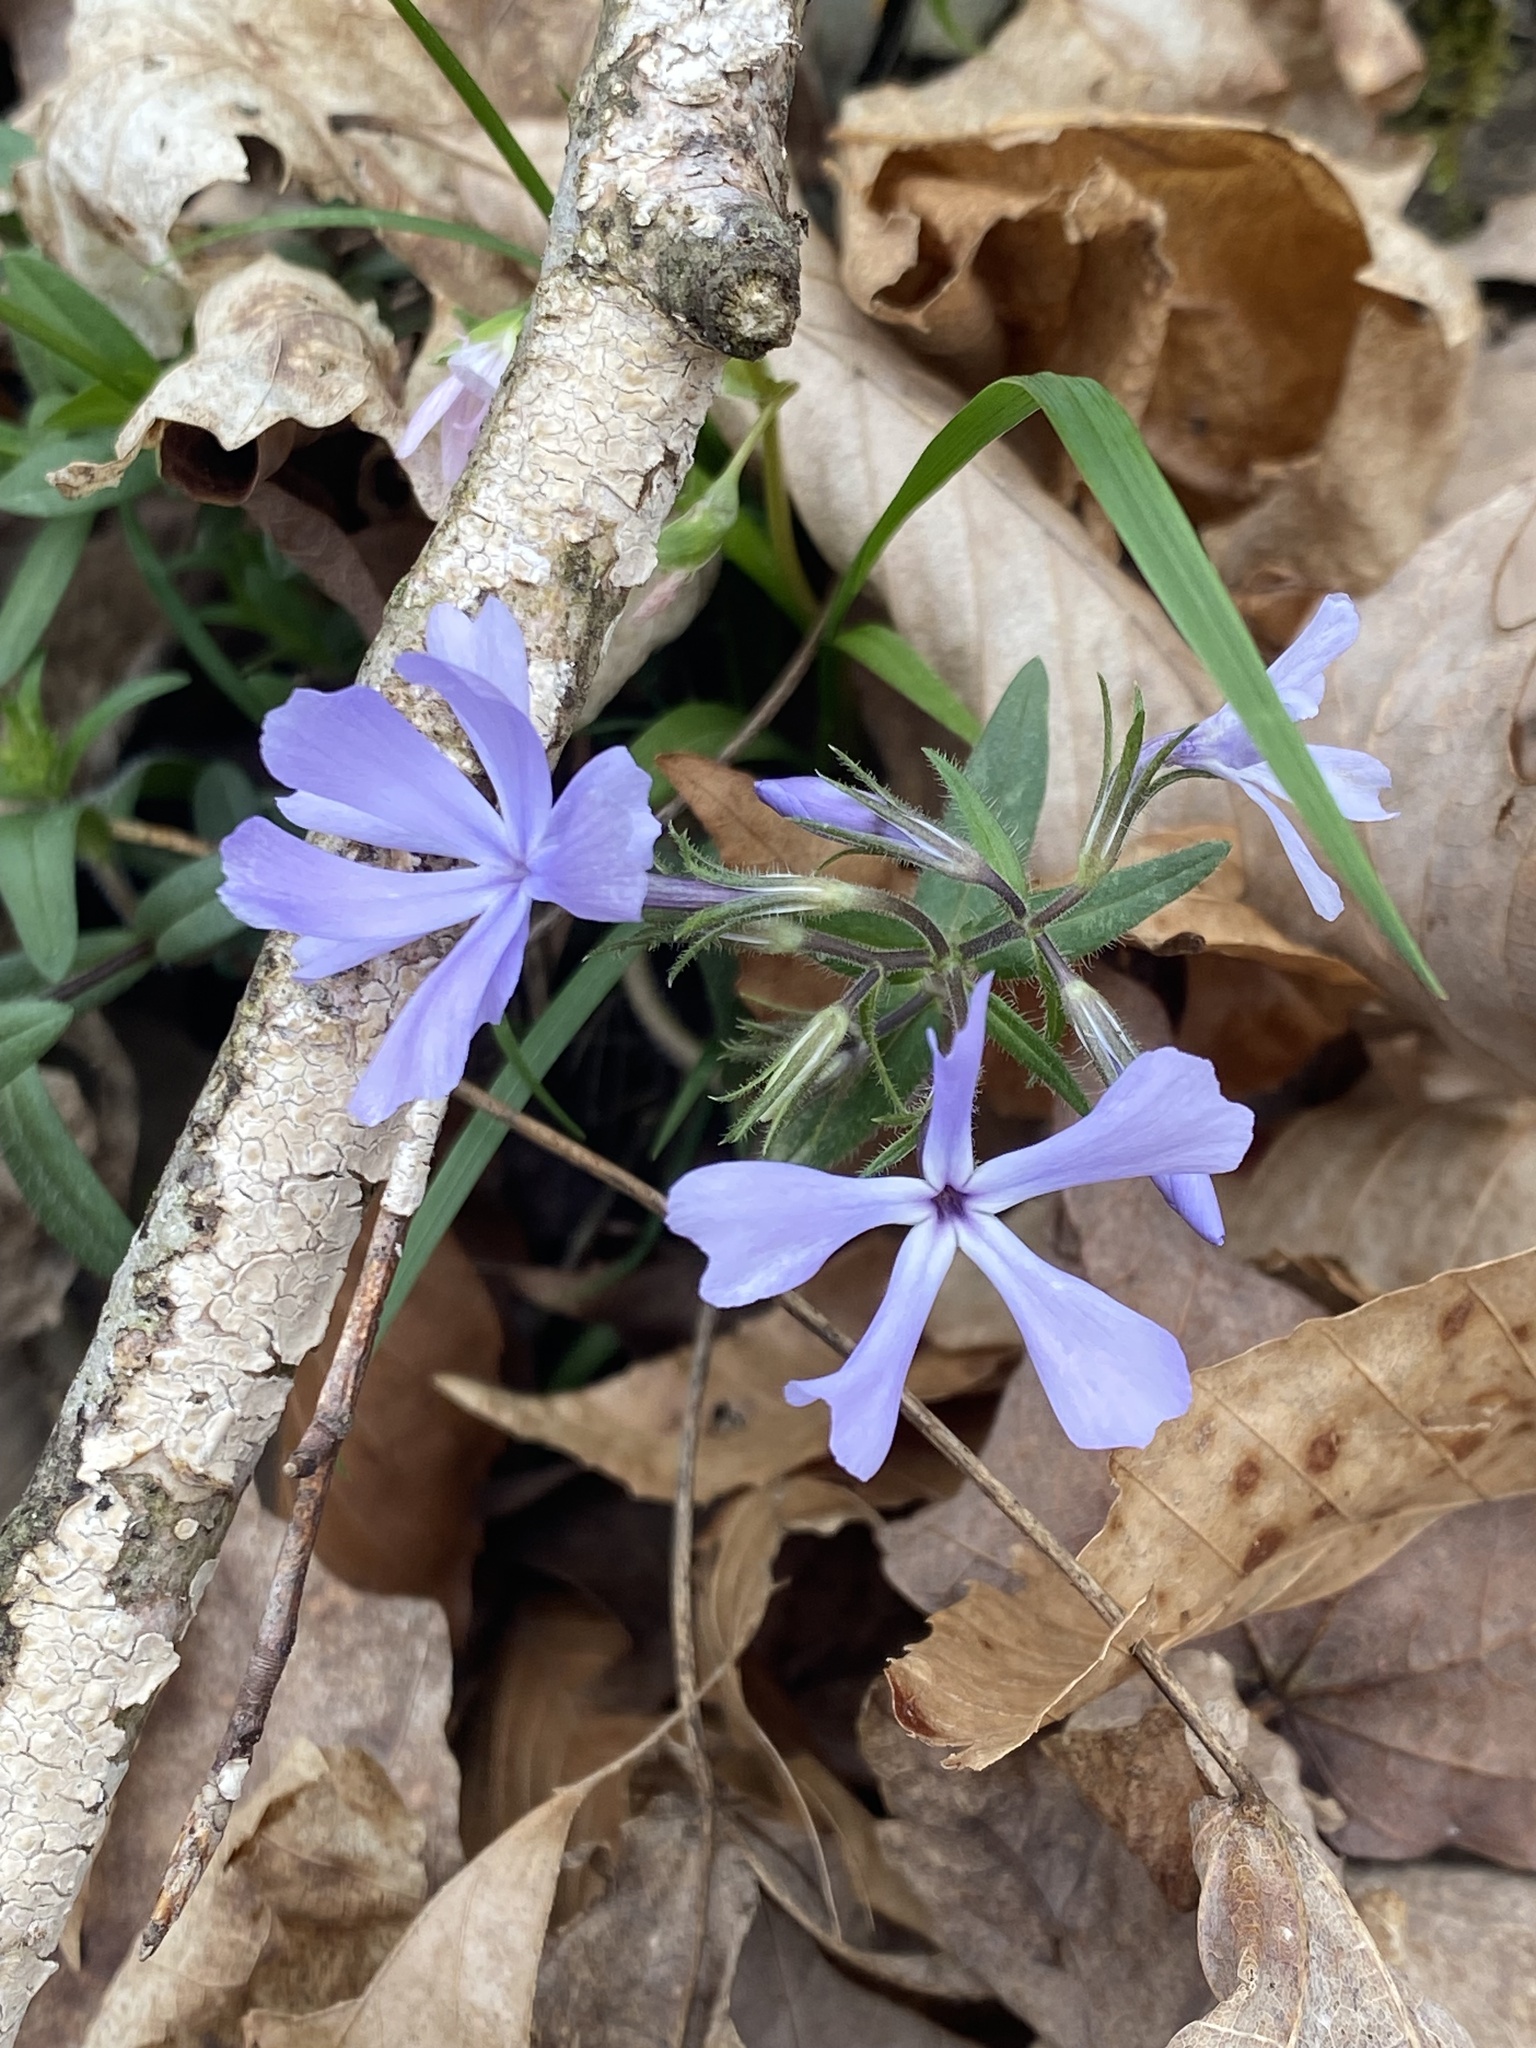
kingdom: Plantae
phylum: Tracheophyta
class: Magnoliopsida
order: Ericales
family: Polemoniaceae
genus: Phlox
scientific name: Phlox divaricata
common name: Blue phlox
